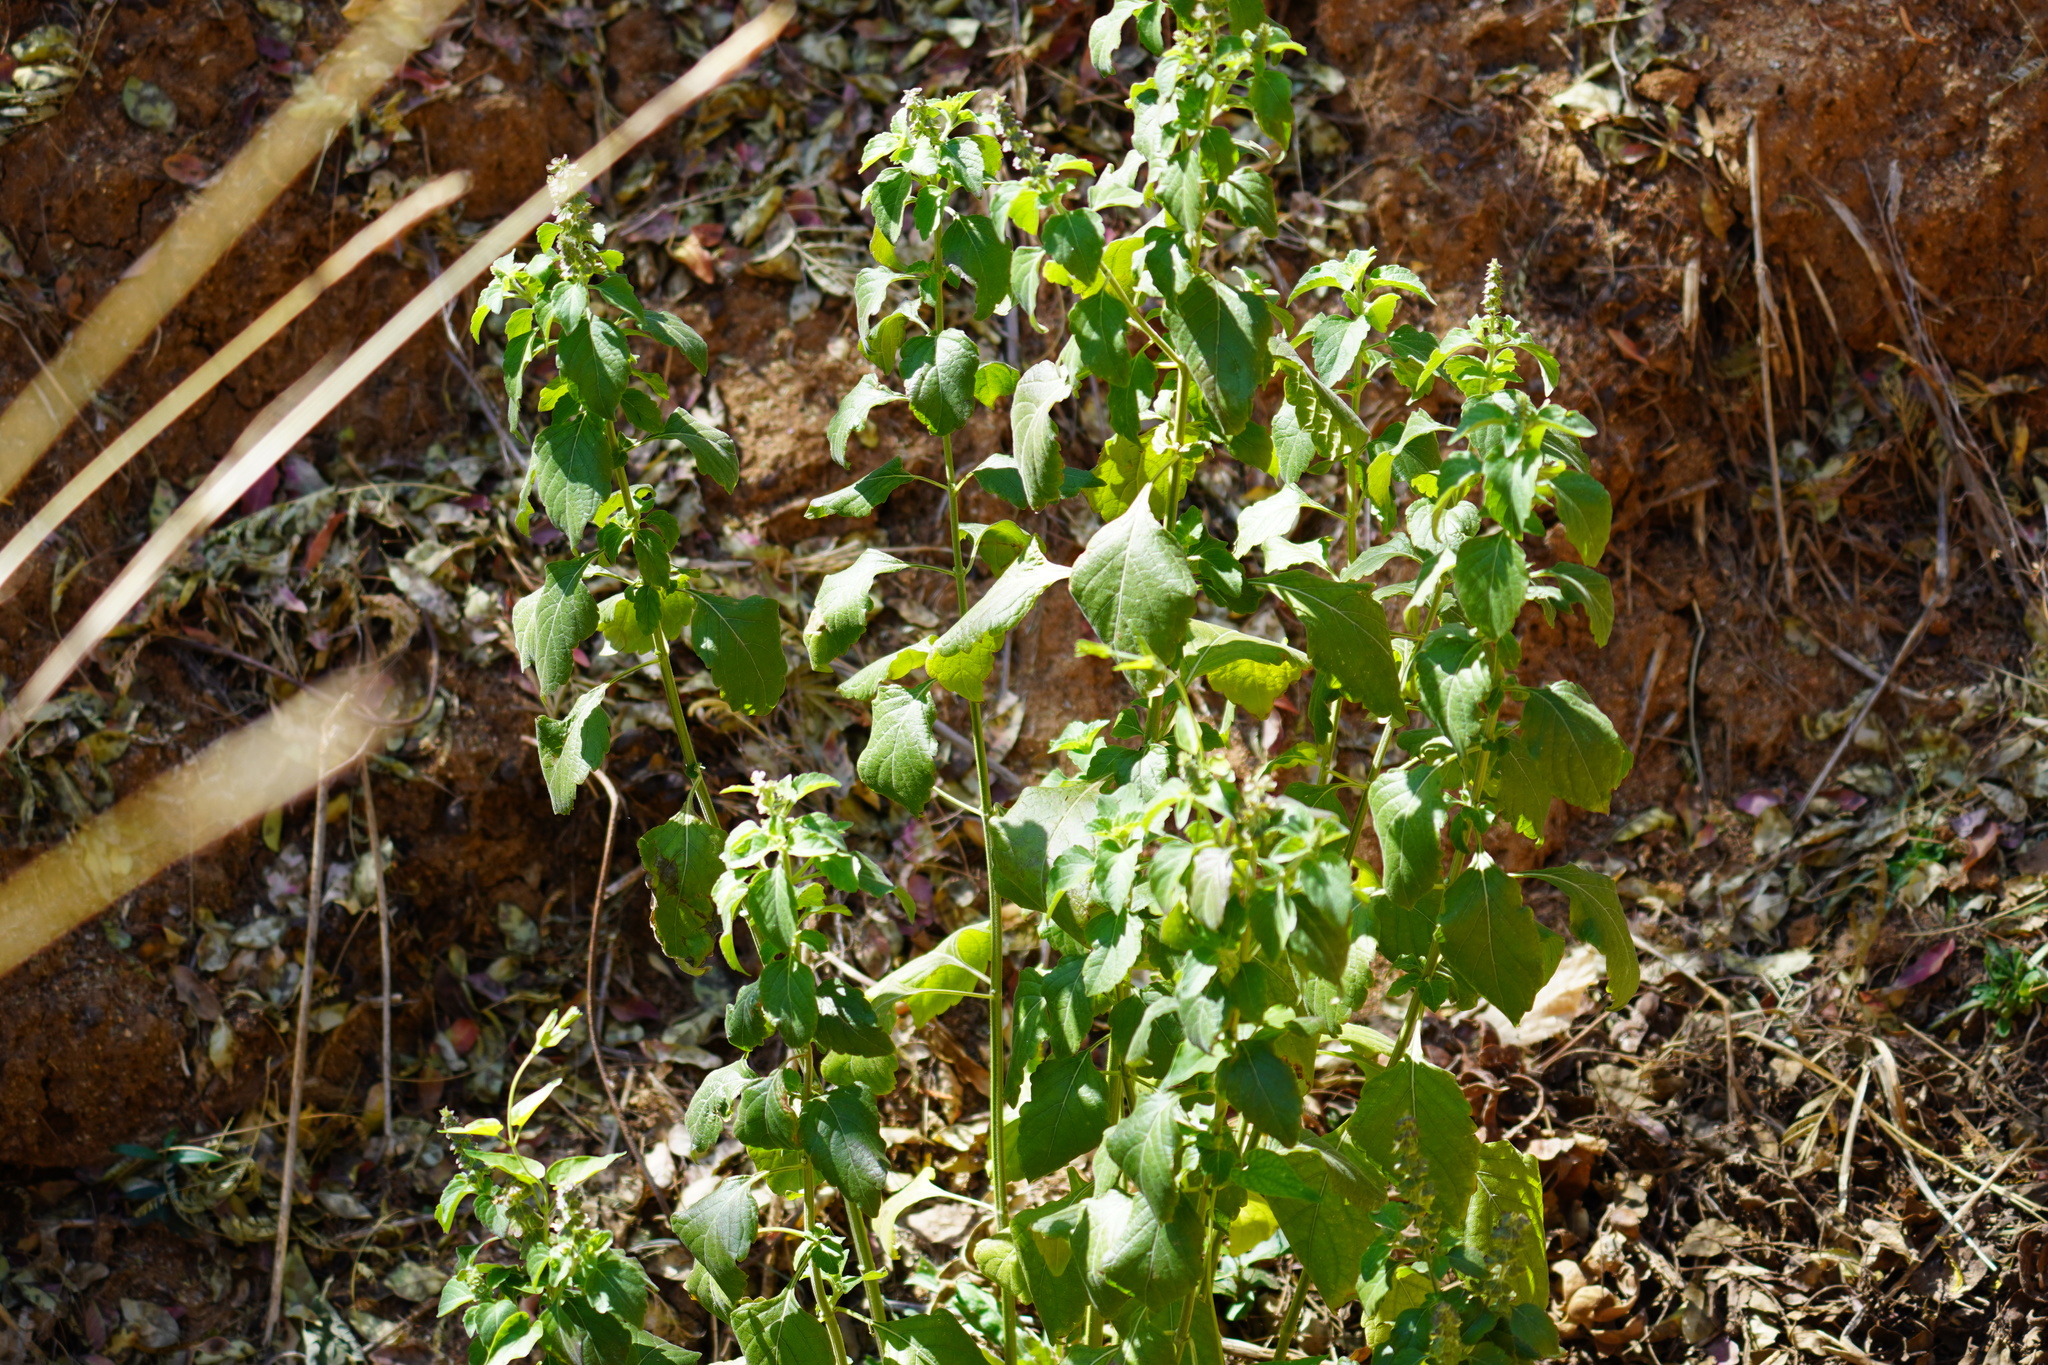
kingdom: Plantae
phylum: Tracheophyta
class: Magnoliopsida
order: Lamiales
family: Lamiaceae
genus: Ocimum
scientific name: Ocimum gratissimum
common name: African basil
